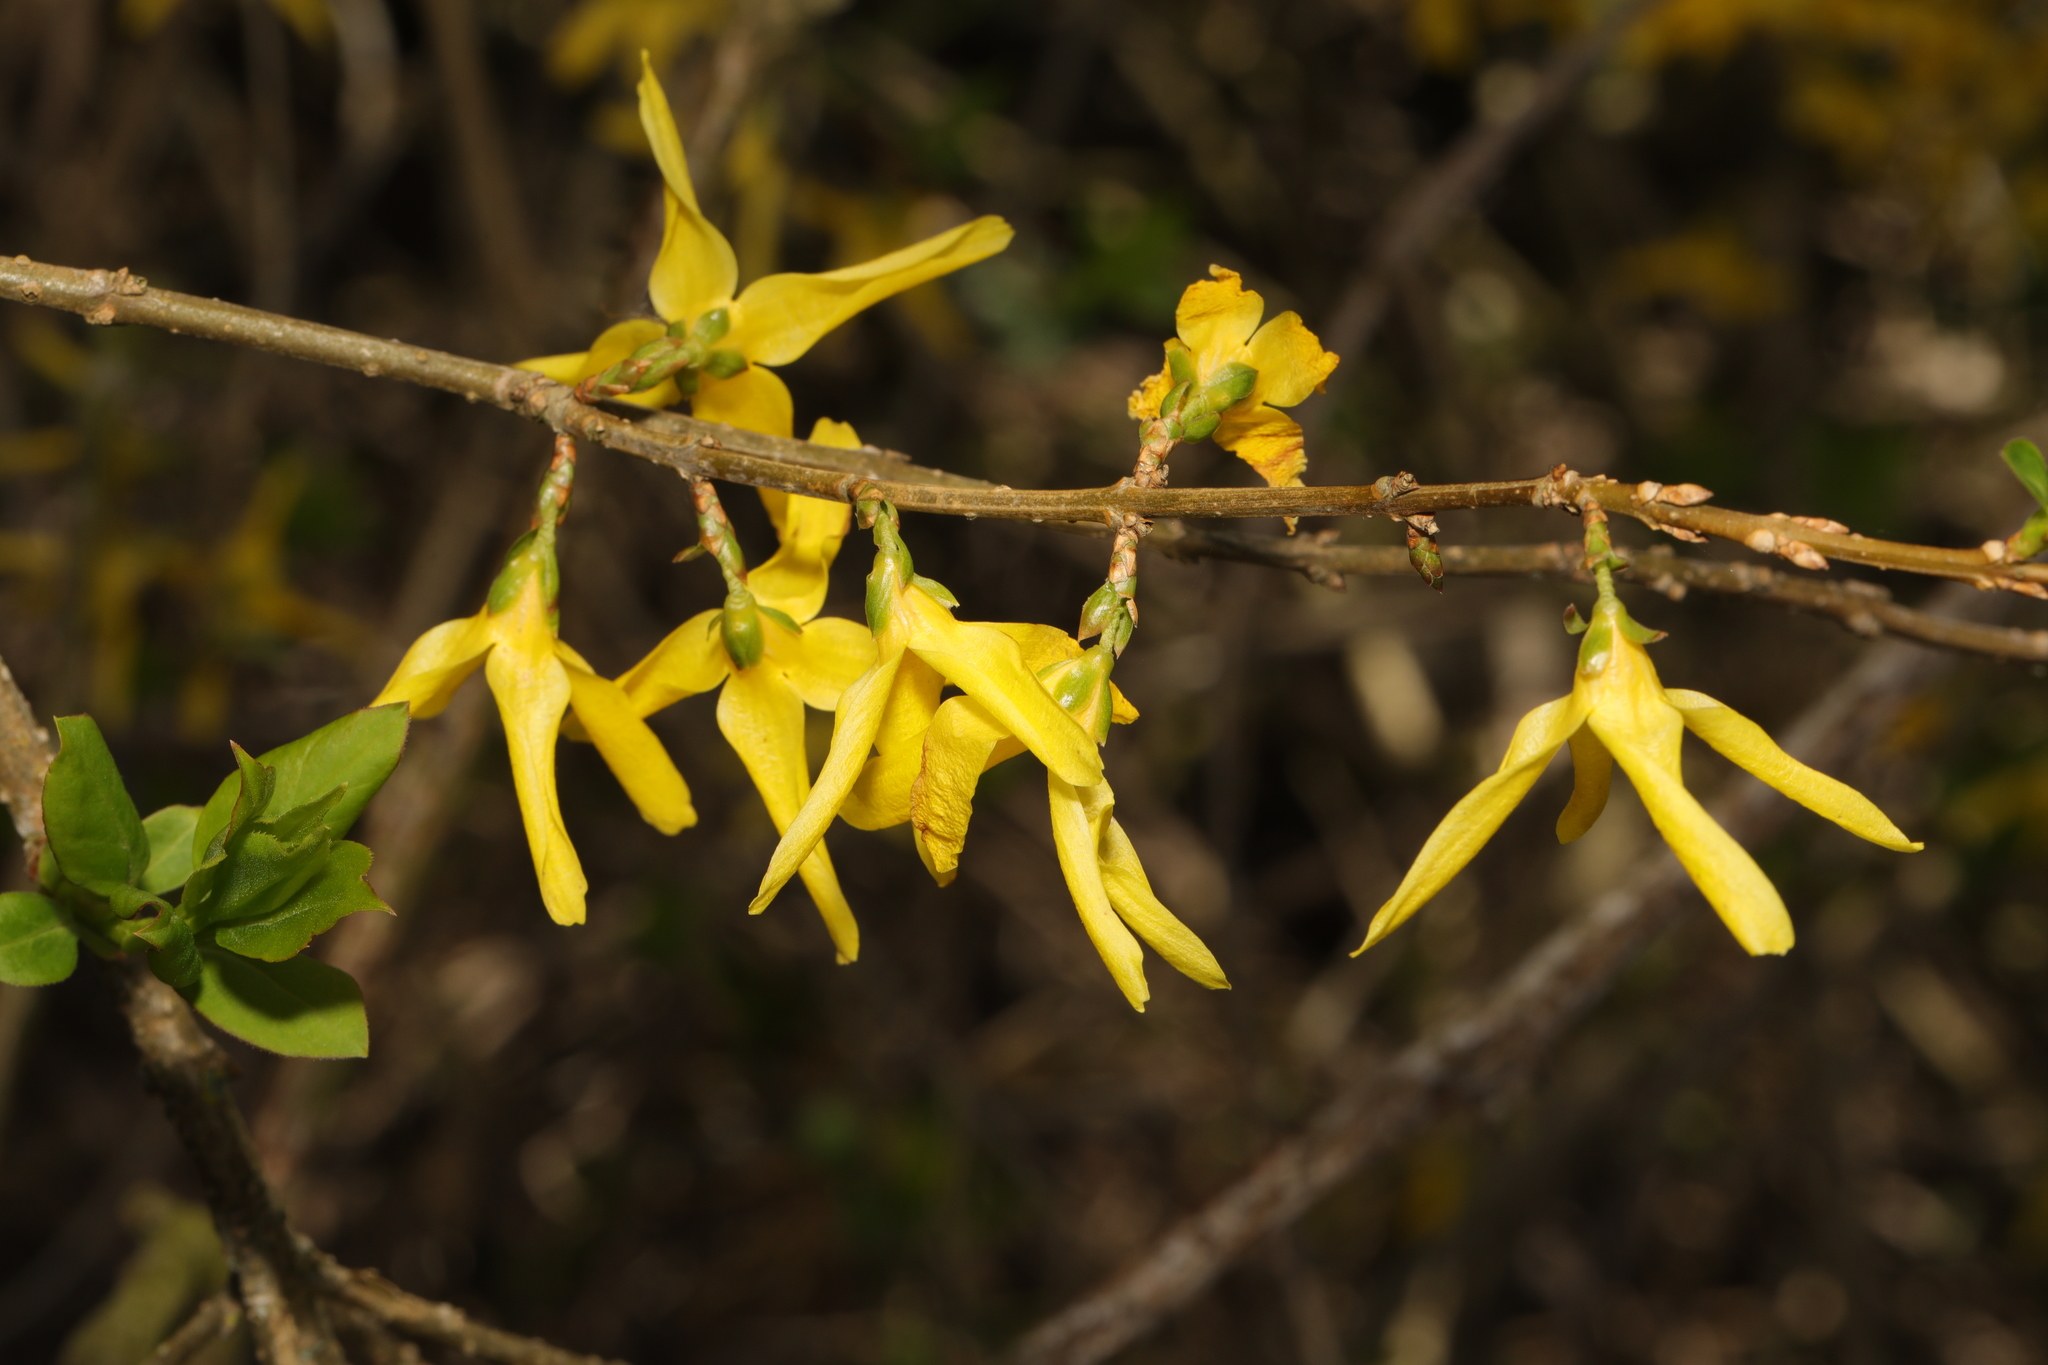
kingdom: Plantae
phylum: Tracheophyta
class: Magnoliopsida
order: Lamiales
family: Oleaceae
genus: Forsythia
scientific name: Forsythia intermedia
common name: Forsythia
